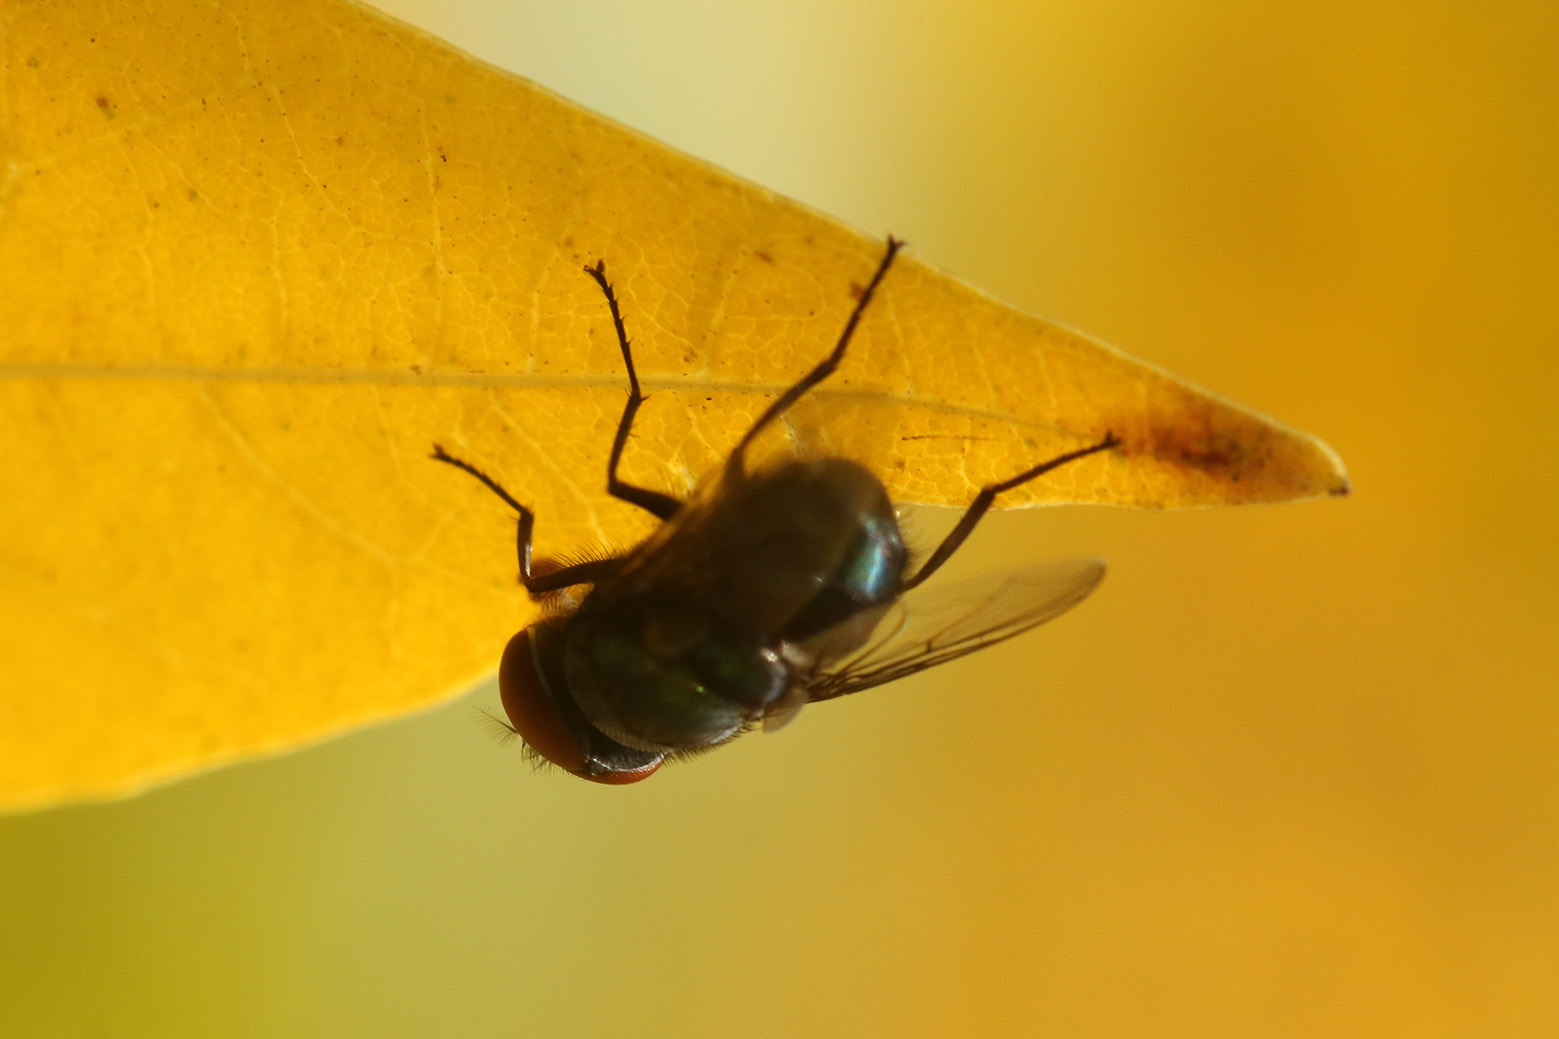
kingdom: Animalia
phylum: Arthropoda
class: Insecta
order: Diptera
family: Calliphoridae
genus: Chrysomya
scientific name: Chrysomya megacephala
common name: Blow fly
